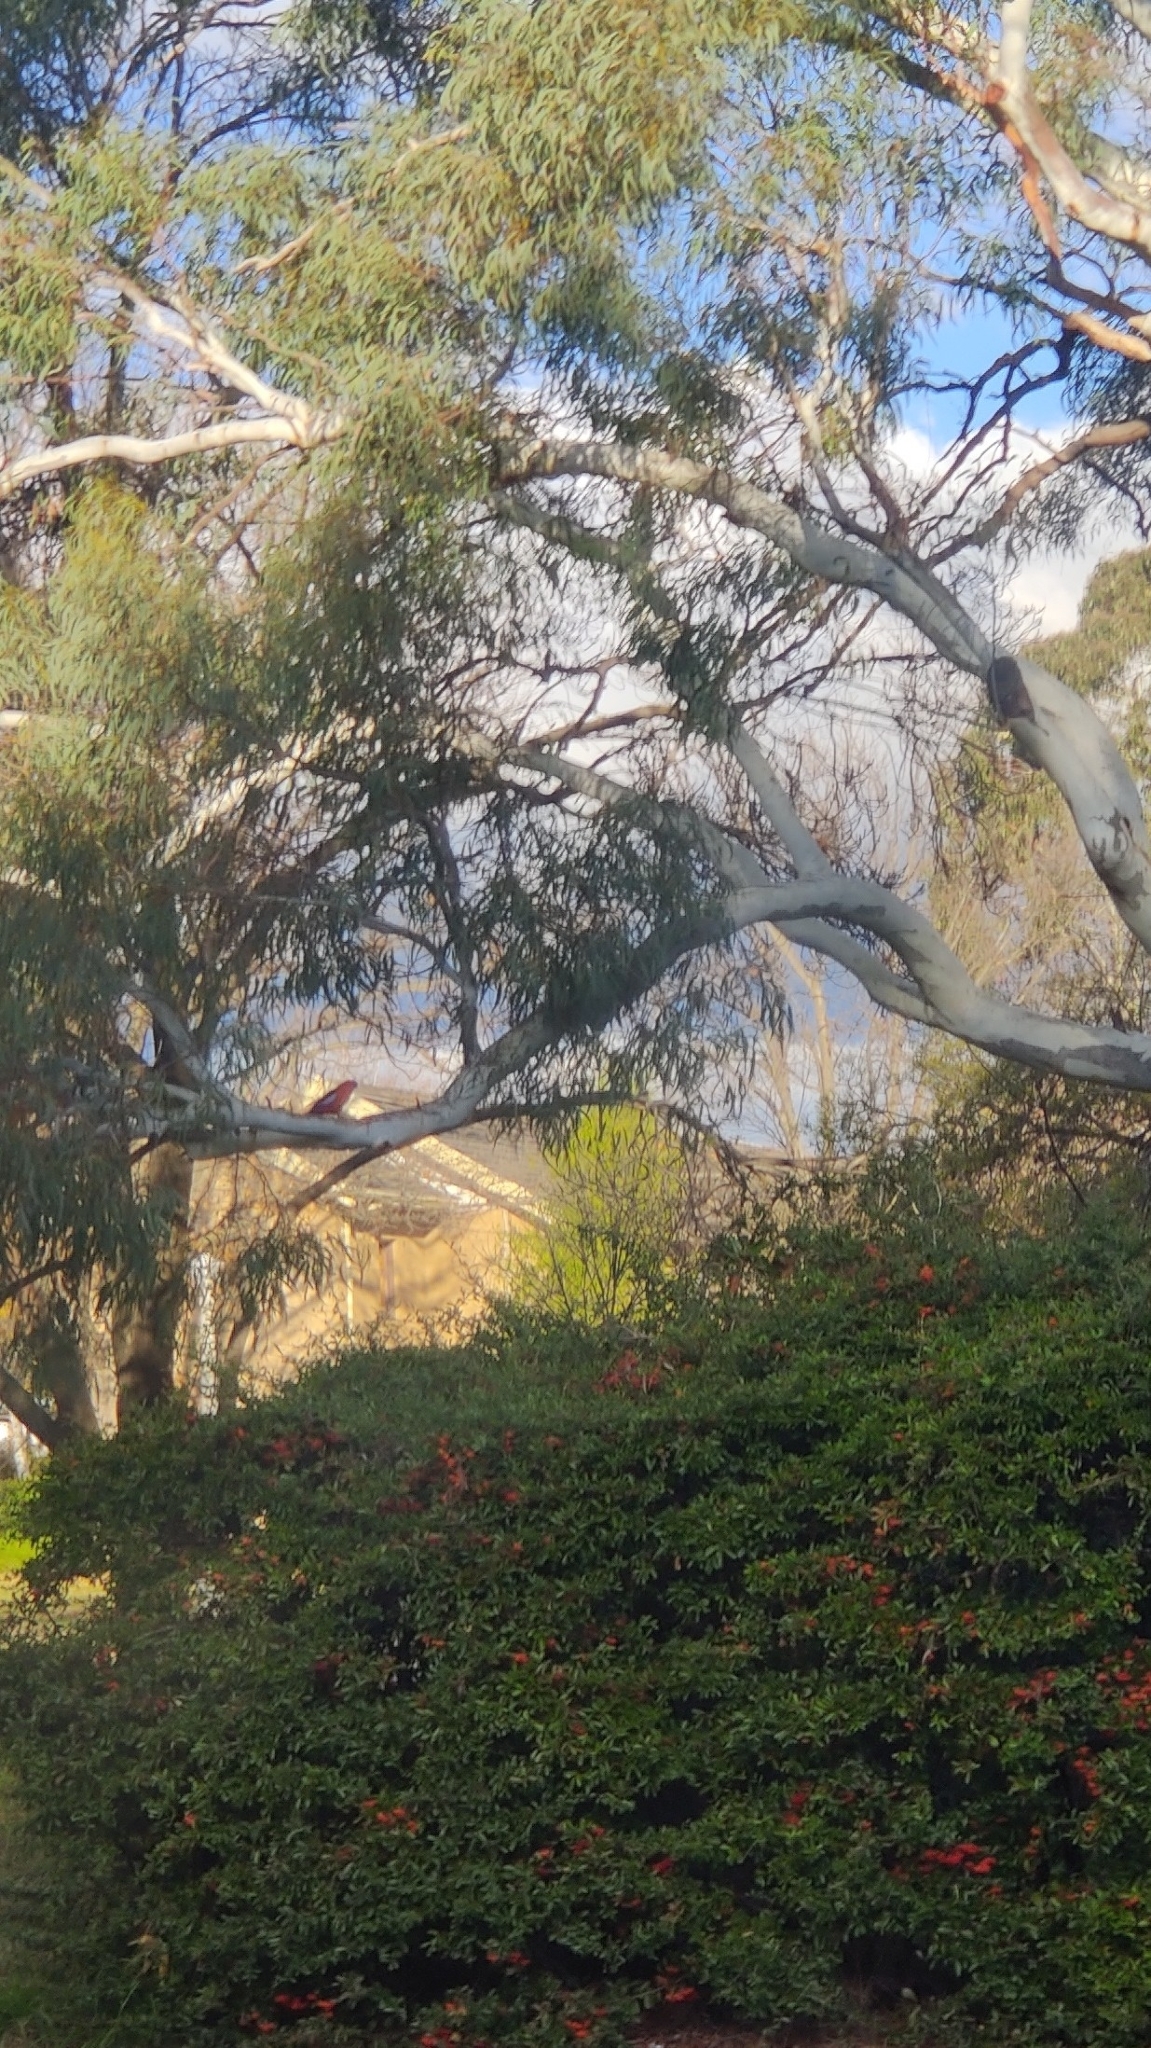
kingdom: Animalia
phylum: Chordata
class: Aves
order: Psittaciformes
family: Psittacidae
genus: Platycercus
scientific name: Platycercus elegans
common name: Crimson rosella
